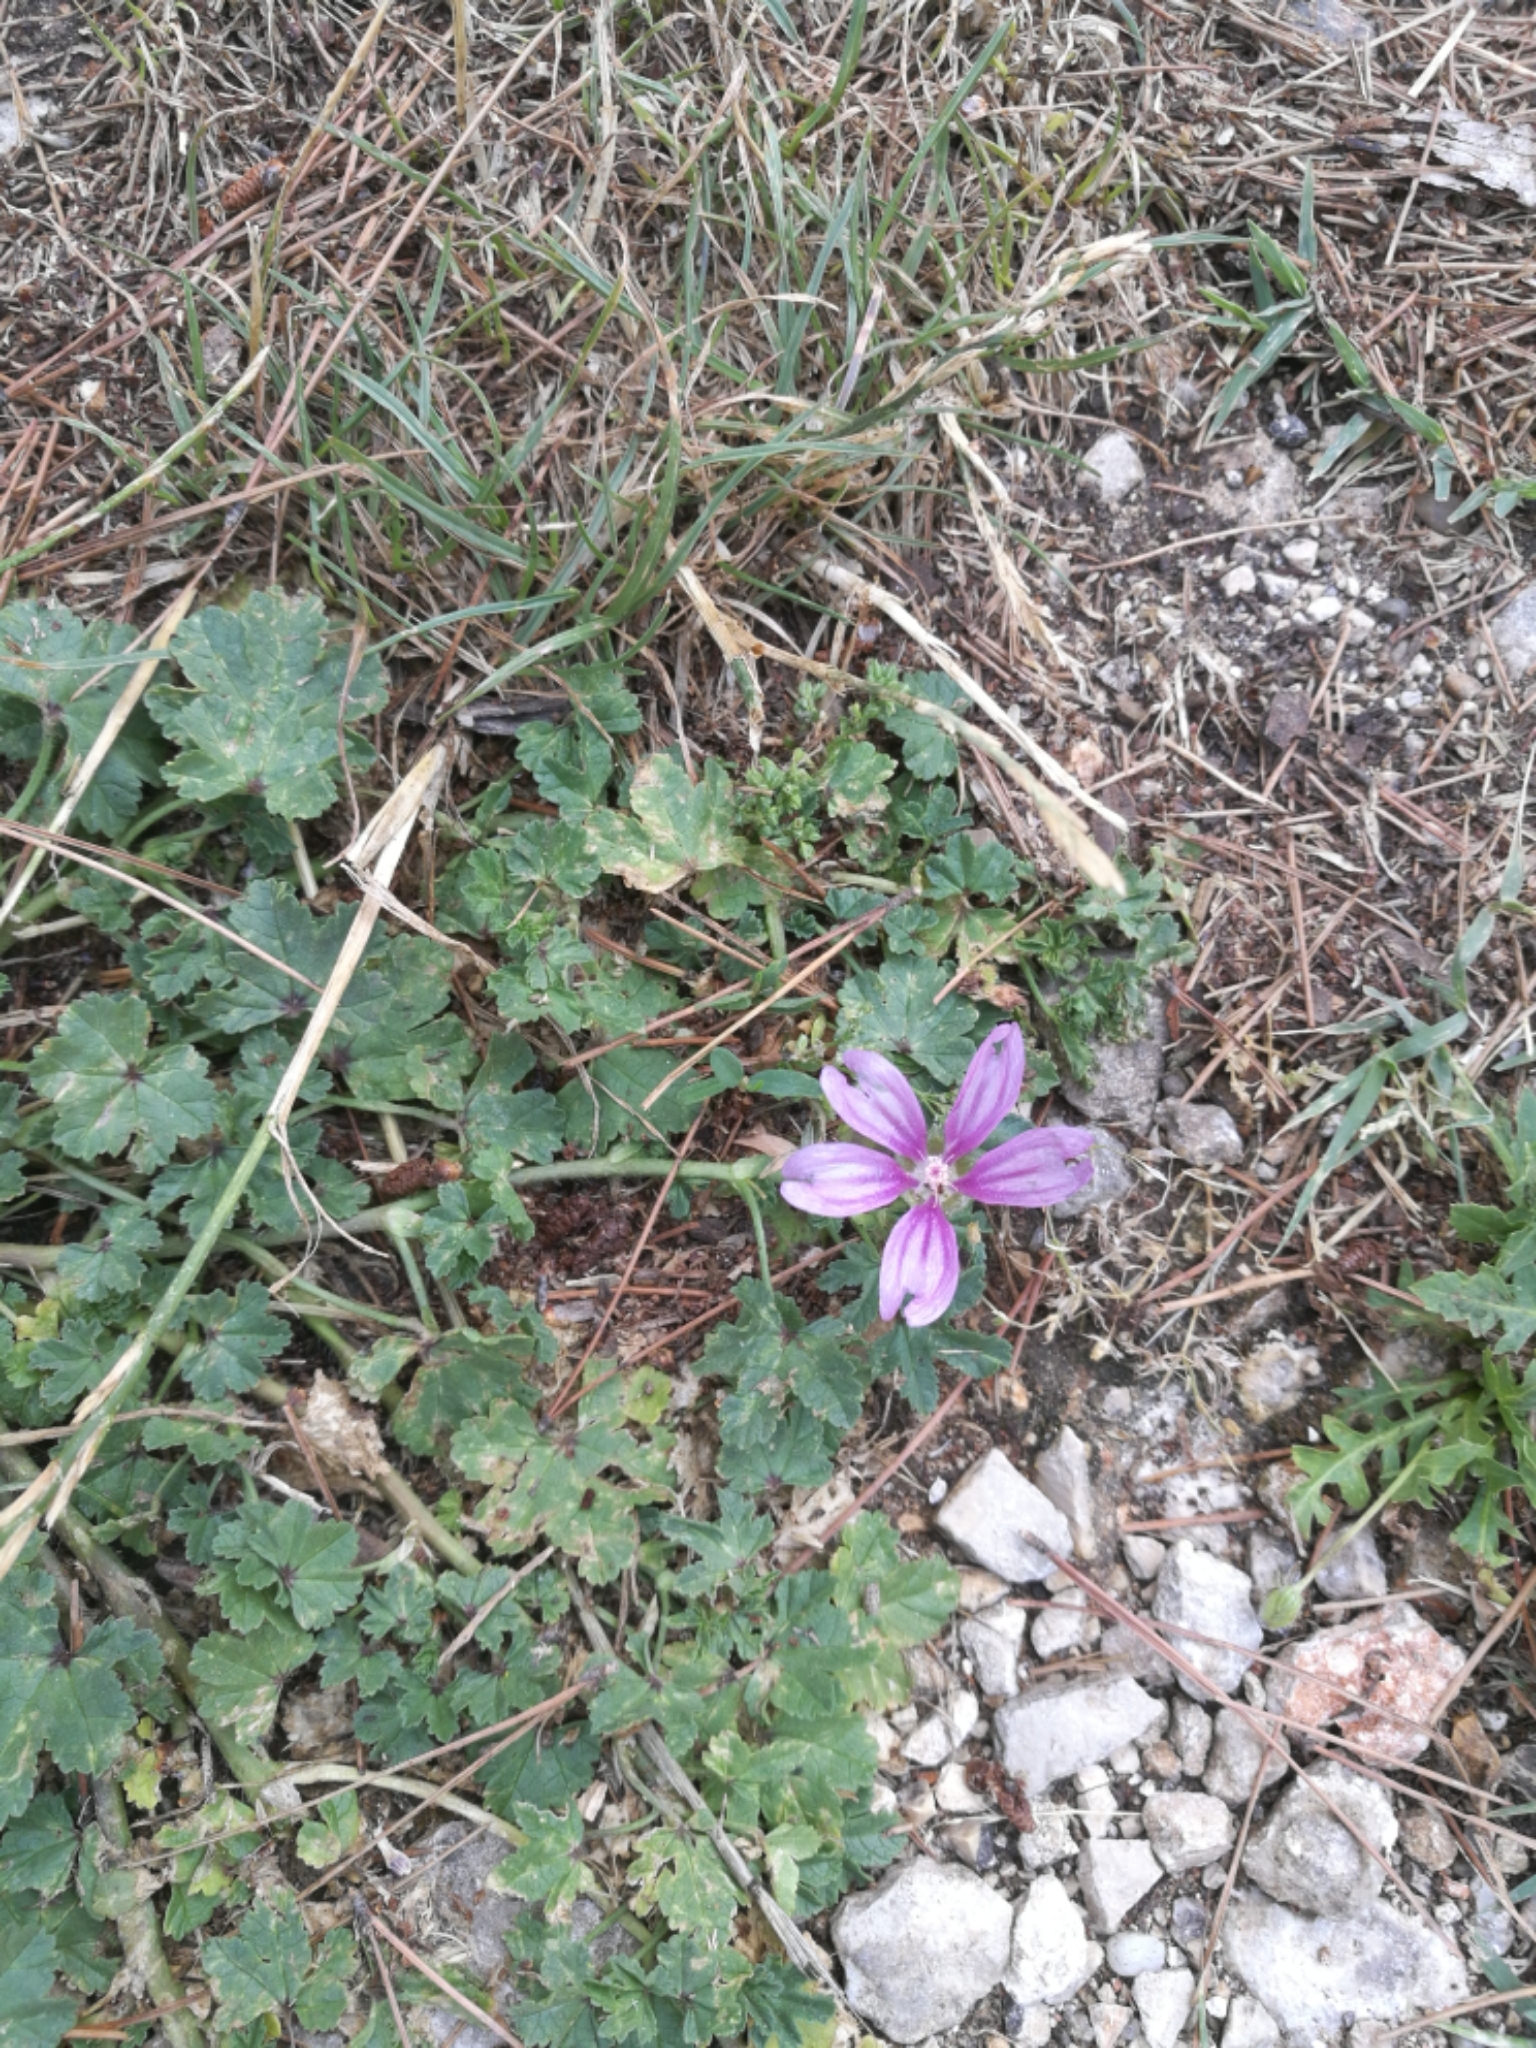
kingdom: Plantae
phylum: Tracheophyta
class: Magnoliopsida
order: Malvales
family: Malvaceae
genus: Malva
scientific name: Malva sylvestris
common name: Common mallow
